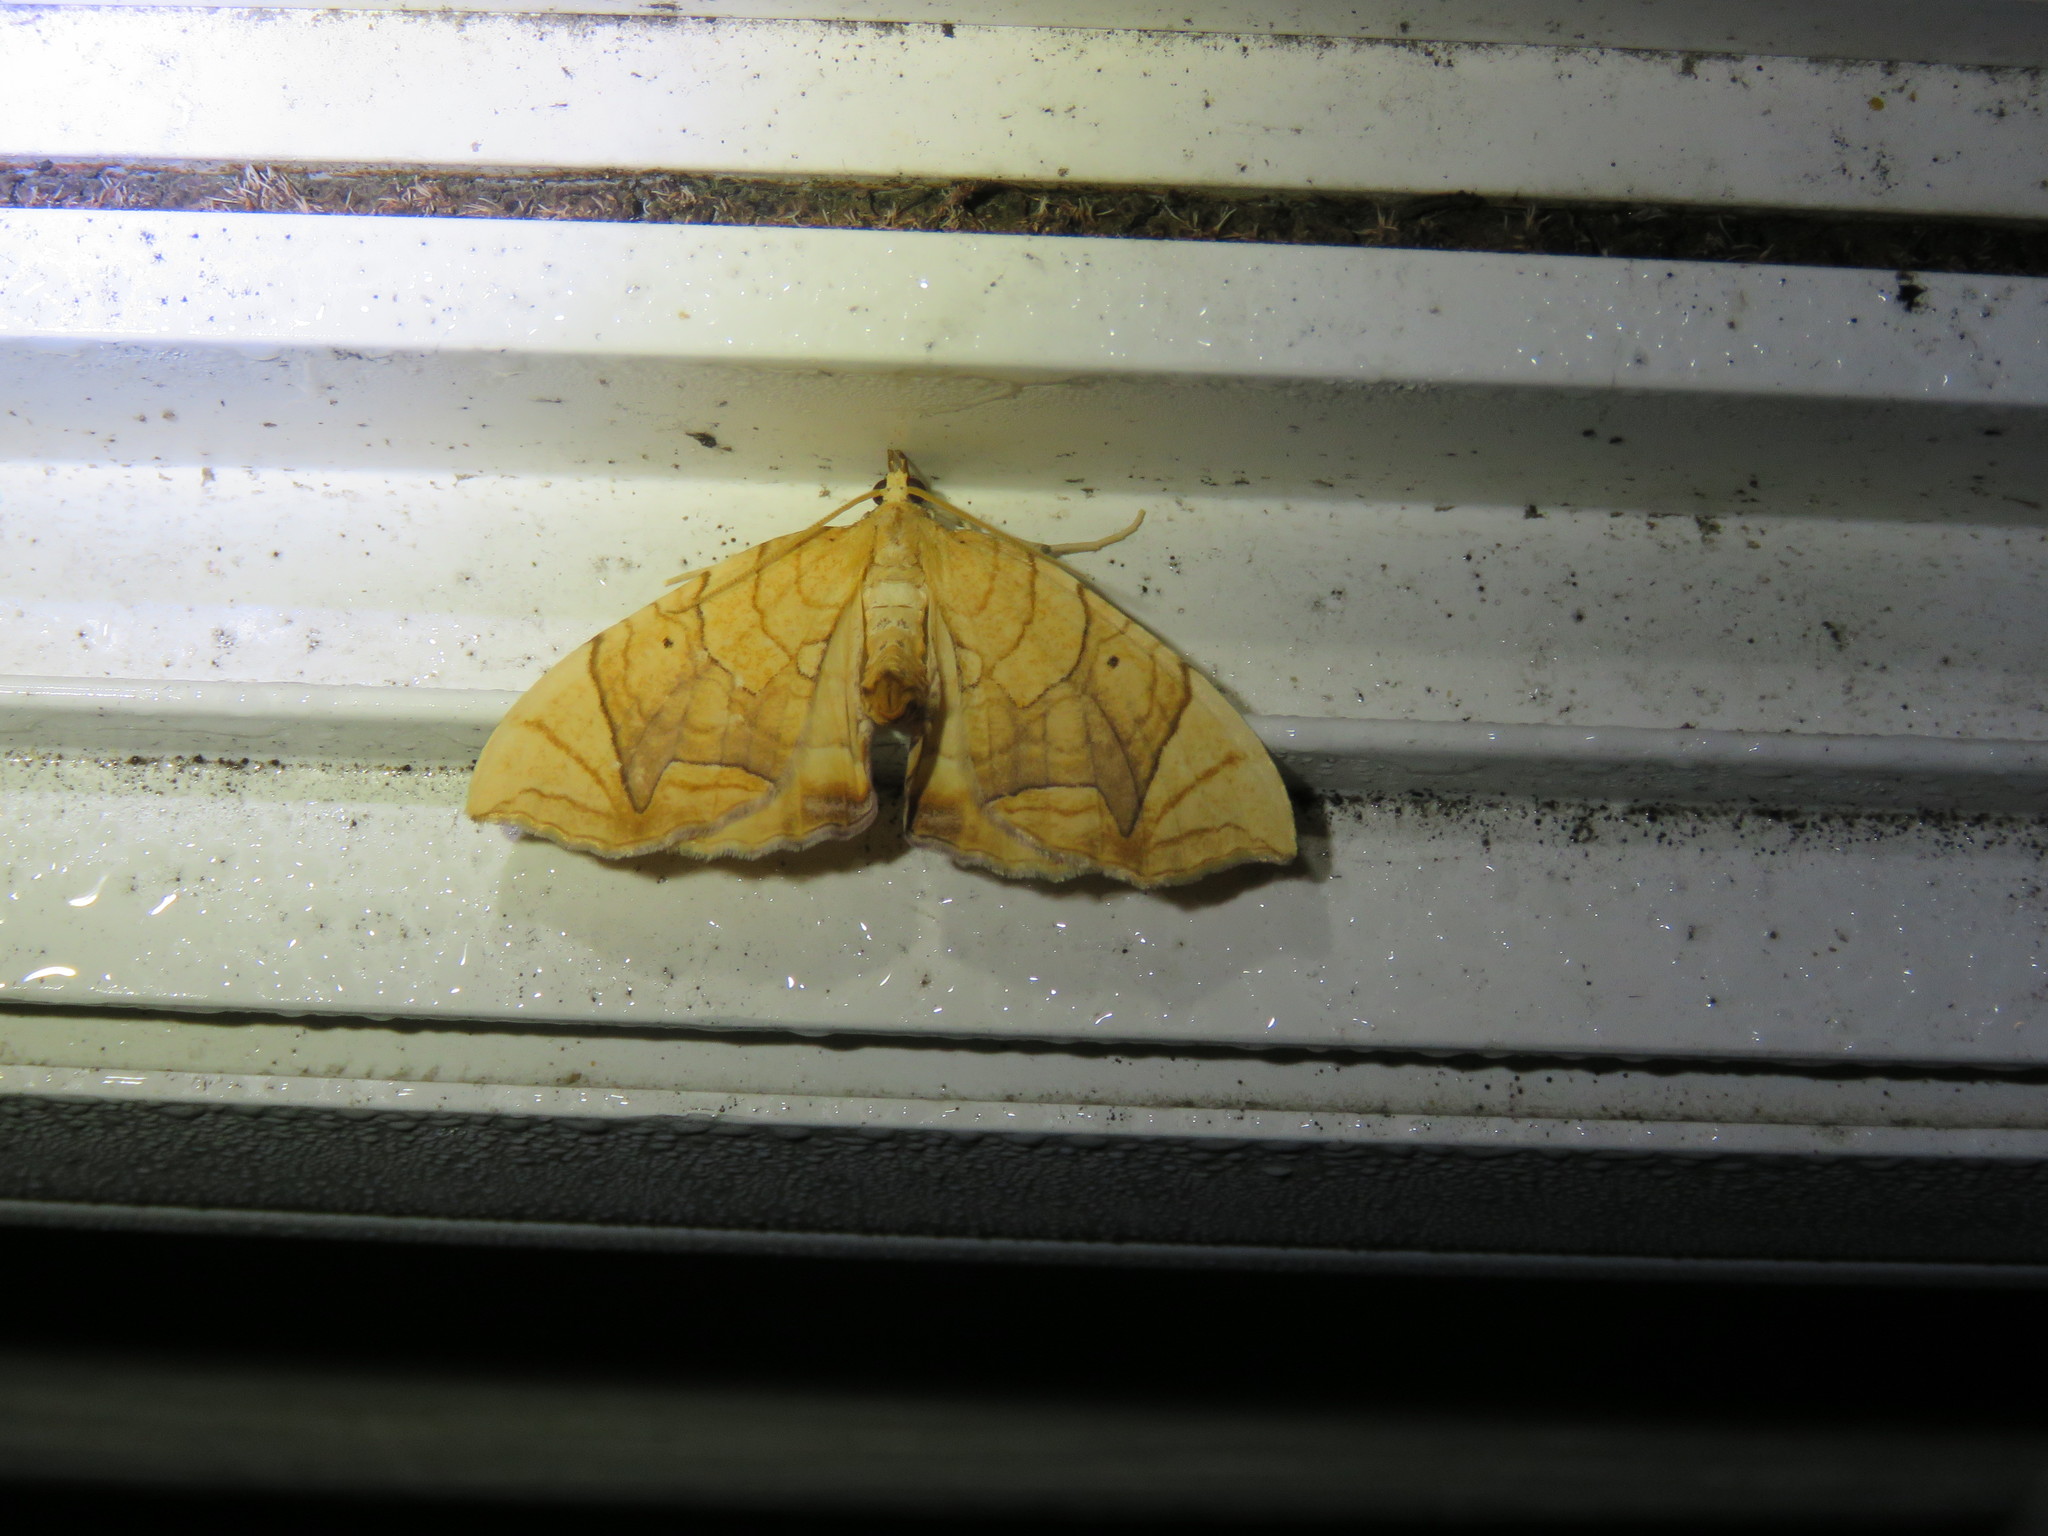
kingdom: Animalia
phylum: Arthropoda
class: Insecta
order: Lepidoptera
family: Geometridae
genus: Eulithis
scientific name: Eulithis
